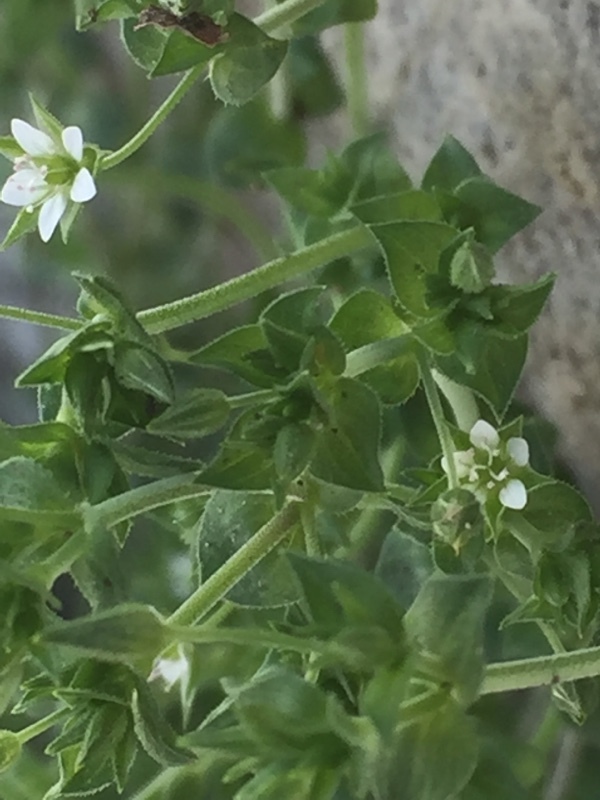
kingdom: Plantae
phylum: Tracheophyta
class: Magnoliopsida
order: Caryophyllales
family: Caryophyllaceae
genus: Arenaria
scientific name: Arenaria serpyllifolia
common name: Thyme-leaved sandwort
